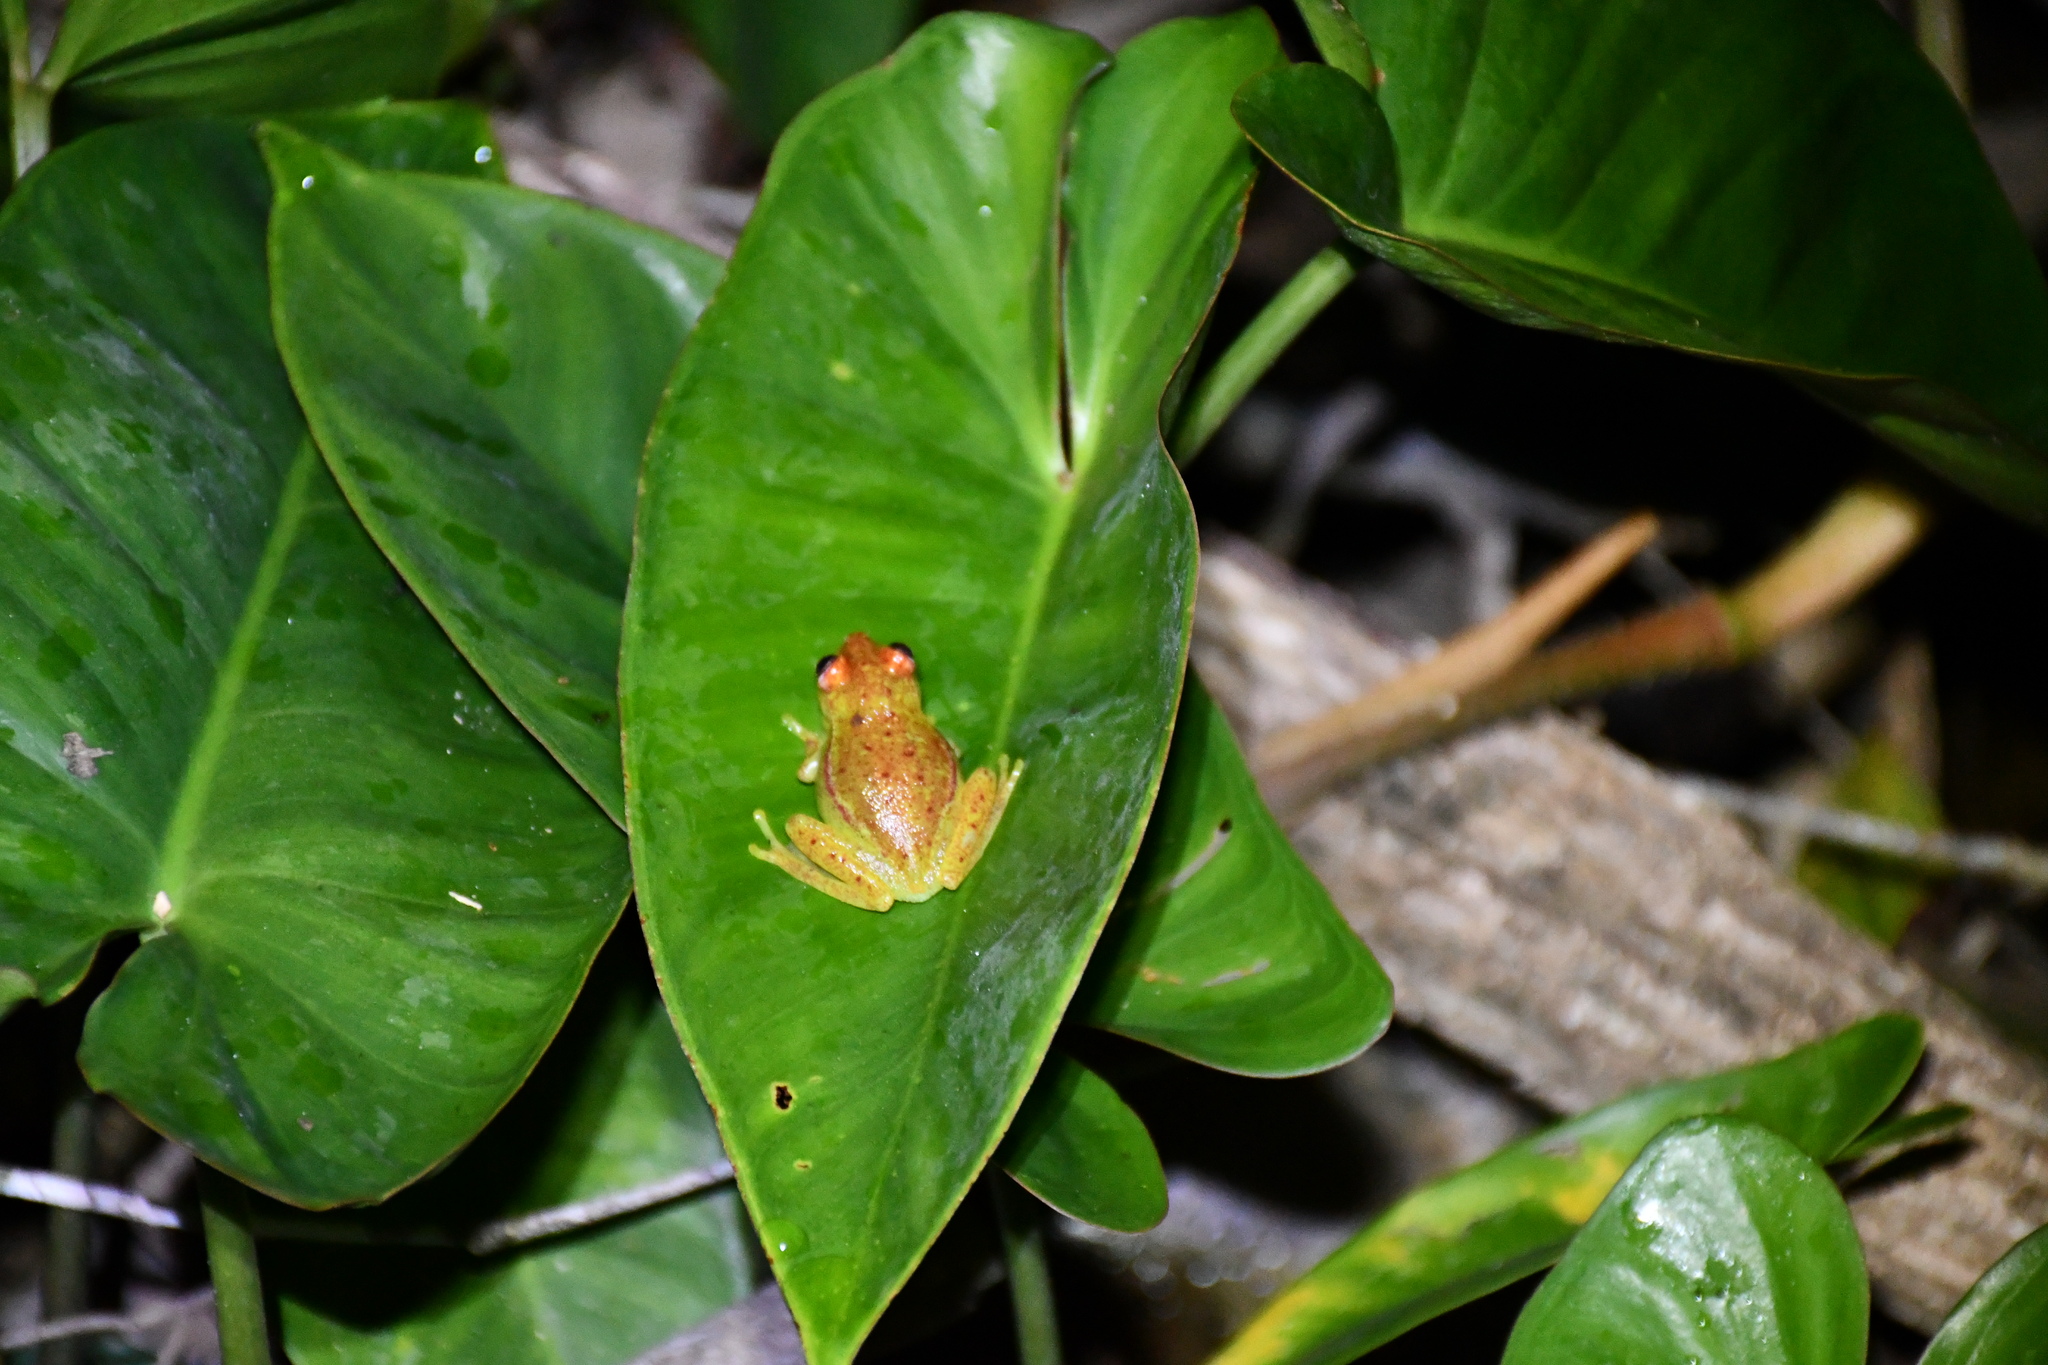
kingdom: Animalia
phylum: Chordata
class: Amphibia
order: Anura
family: Hylidae
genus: Boana
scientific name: Boana punctata
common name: Polka-dot treefrog
